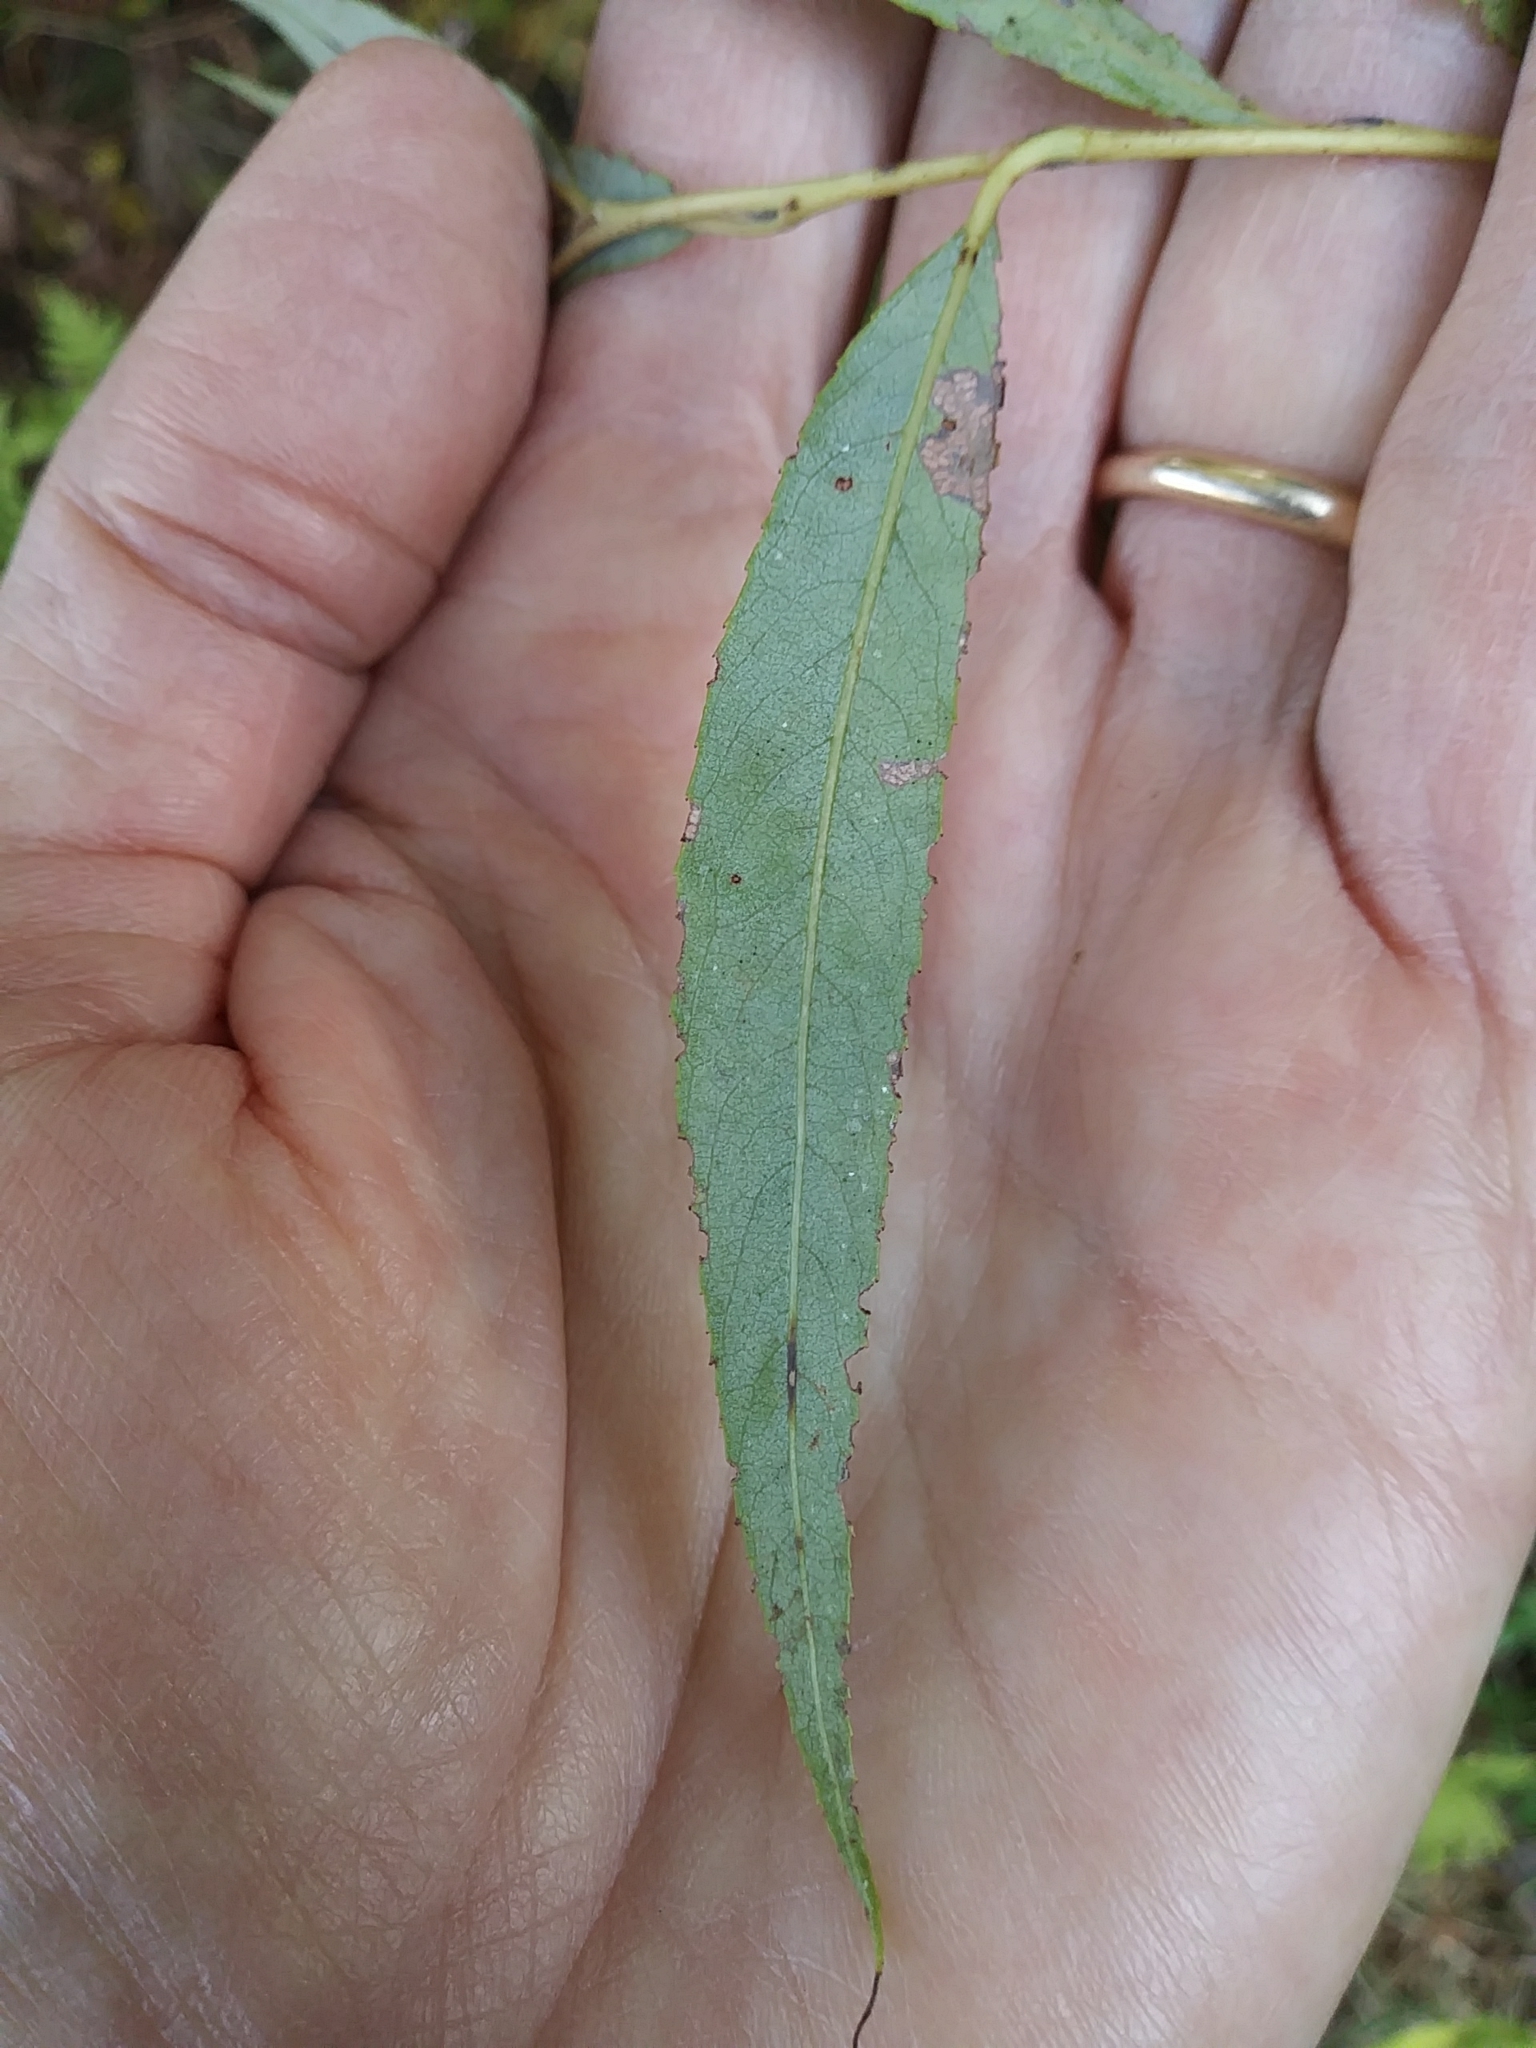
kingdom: Plantae
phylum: Tracheophyta
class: Magnoliopsida
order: Malpighiales
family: Salicaceae
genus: Salix
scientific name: Salix alba
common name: White willow
